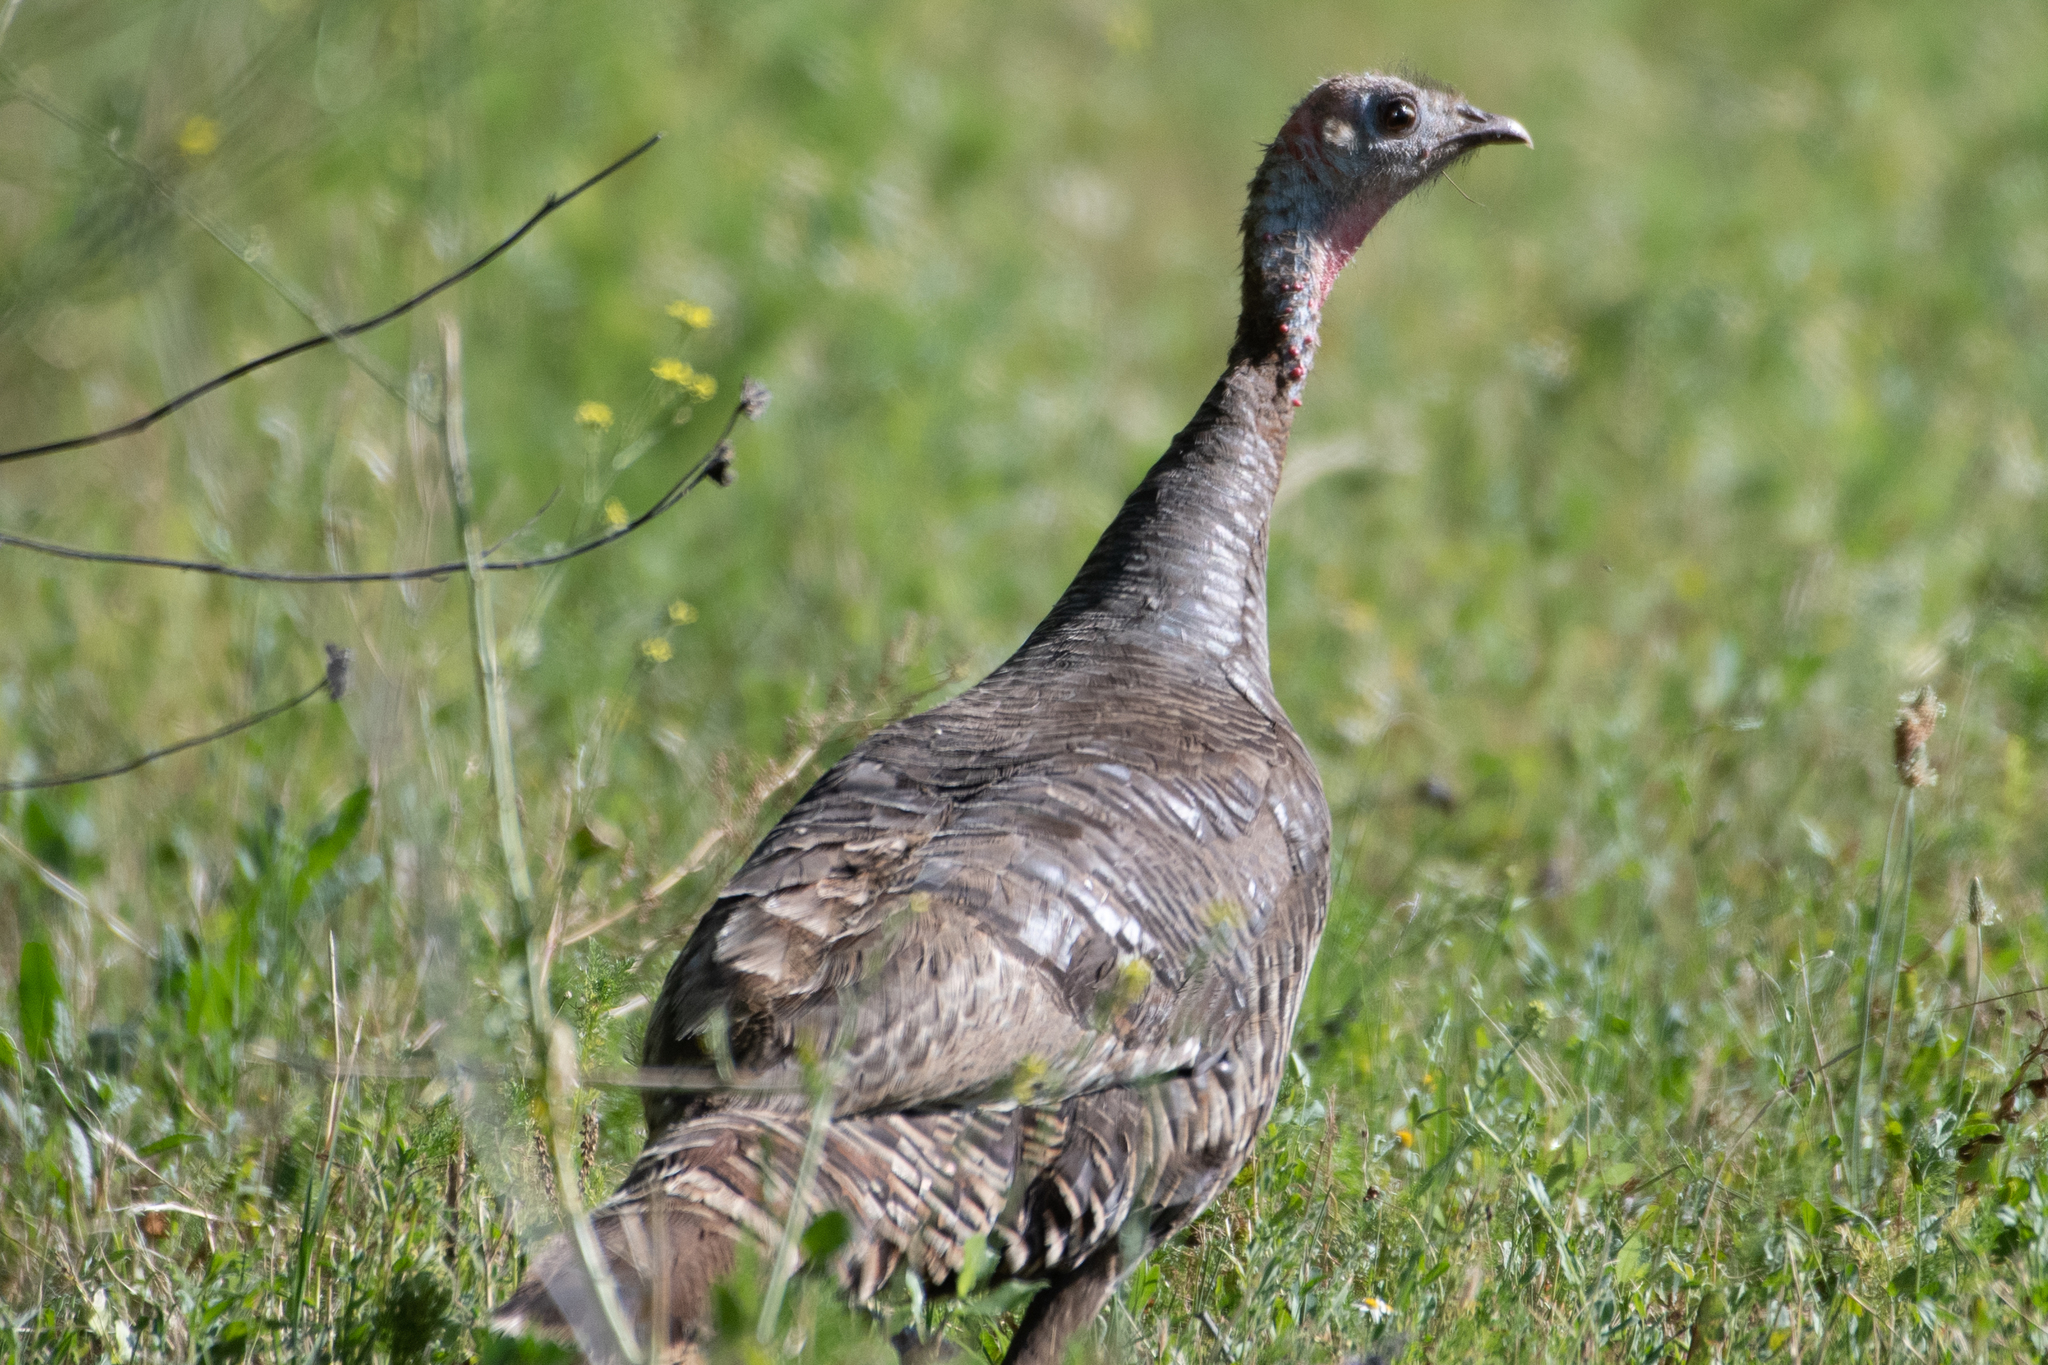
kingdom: Animalia
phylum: Chordata
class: Aves
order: Galliformes
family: Phasianidae
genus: Meleagris
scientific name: Meleagris gallopavo
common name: Wild turkey
